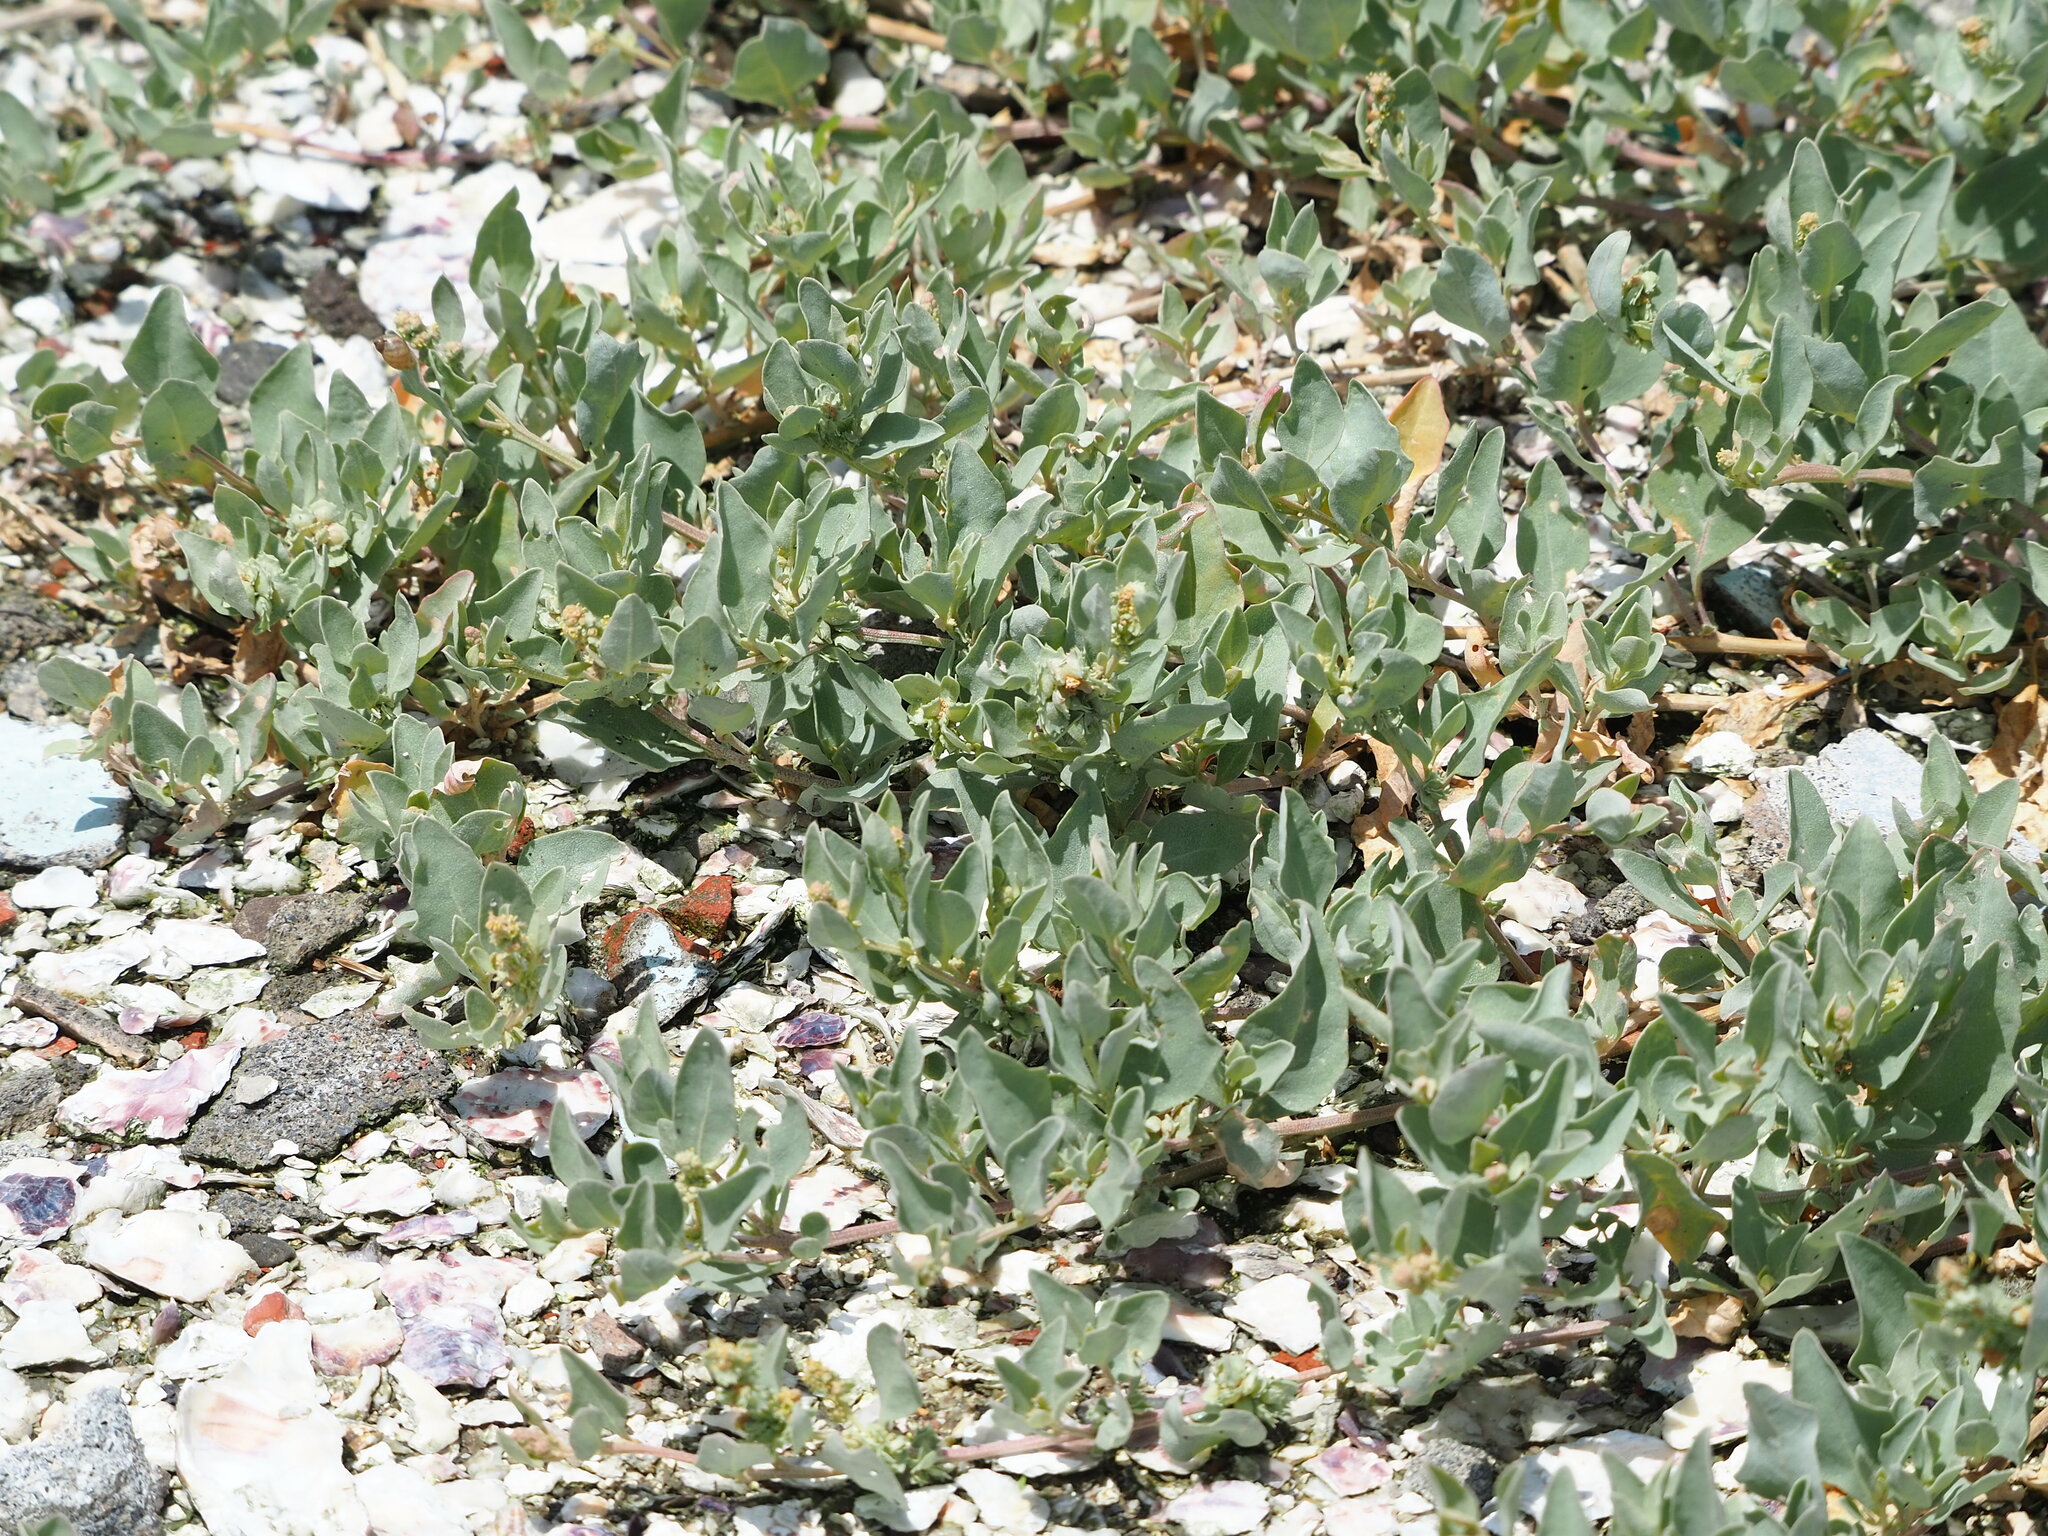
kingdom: Plantae
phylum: Tracheophyta
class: Magnoliopsida
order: Caryophyllales
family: Amaranthaceae
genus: Atriplex
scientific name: Atriplex maximowicziana
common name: Maximowicz's saltbush
